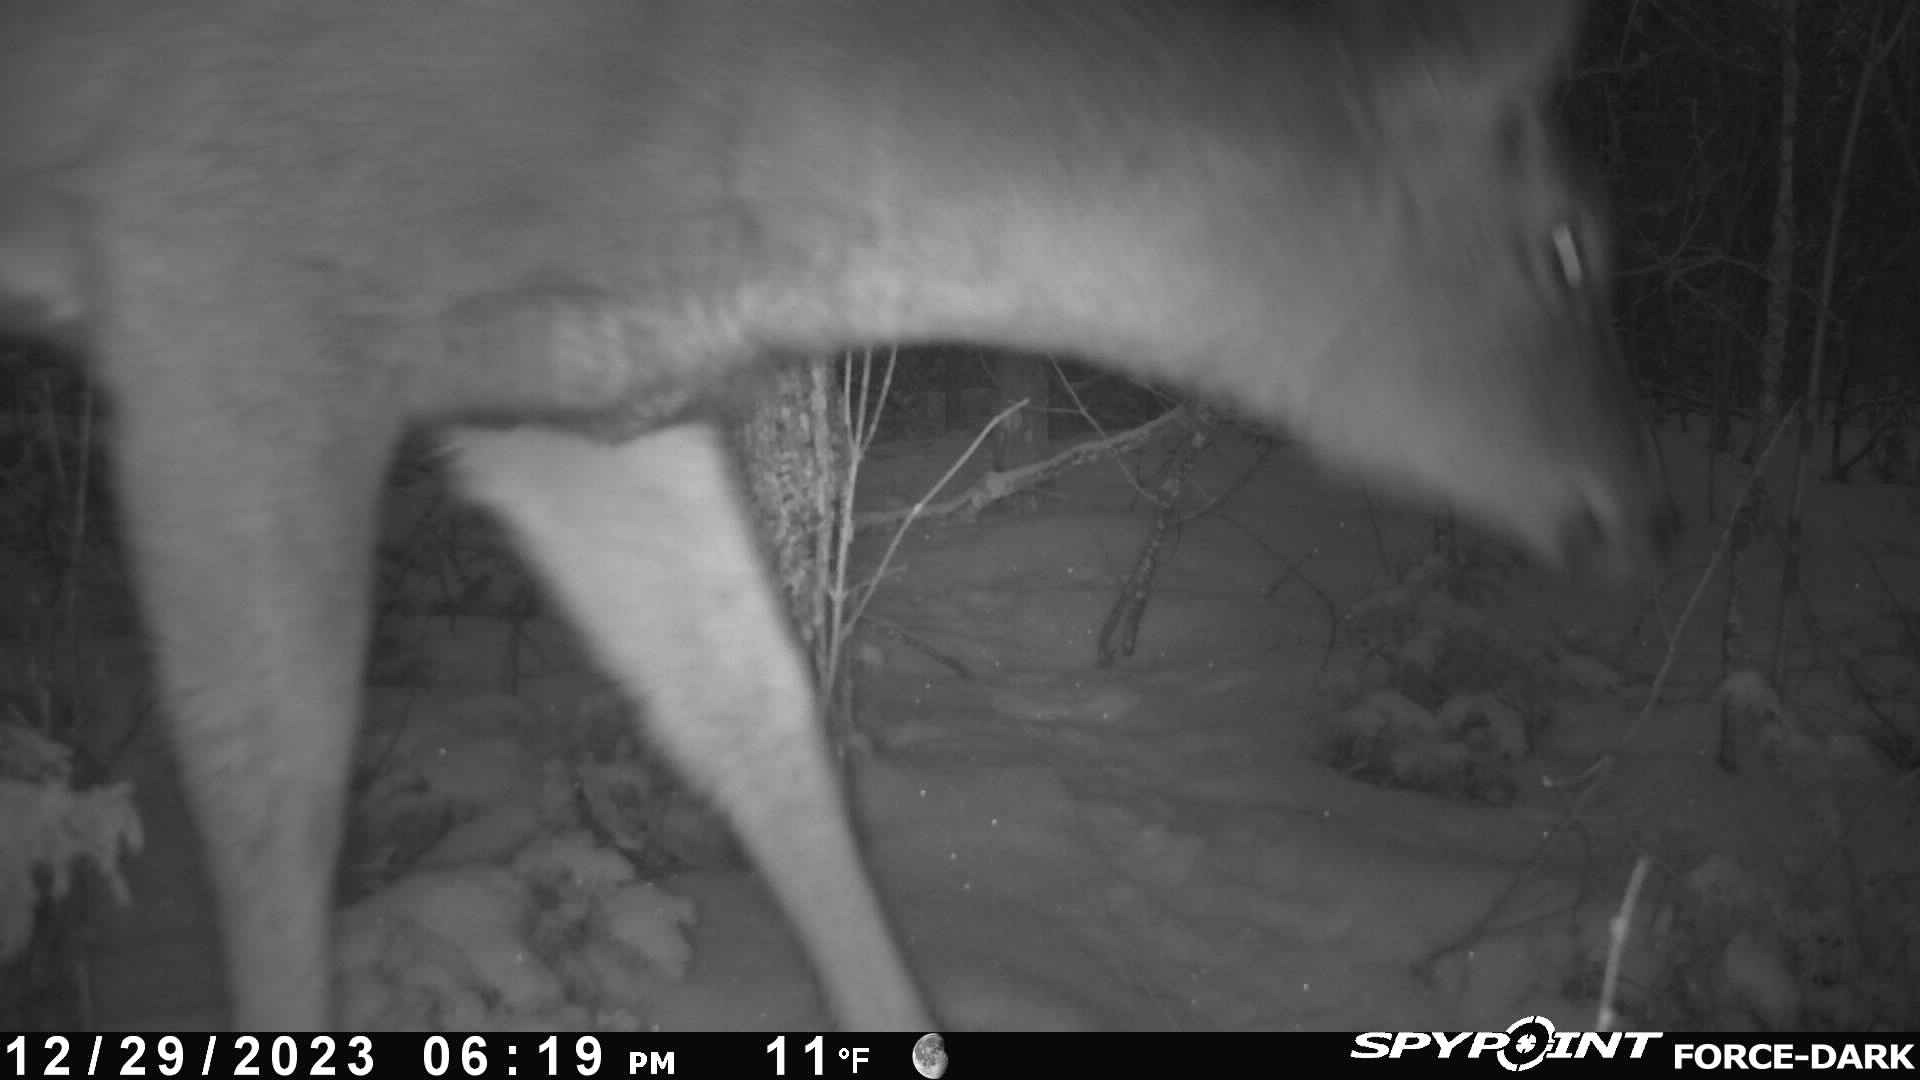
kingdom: Animalia
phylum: Chordata
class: Mammalia
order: Artiodactyla
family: Cervidae
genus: Odocoileus
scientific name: Odocoileus virginianus
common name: White-tailed deer
